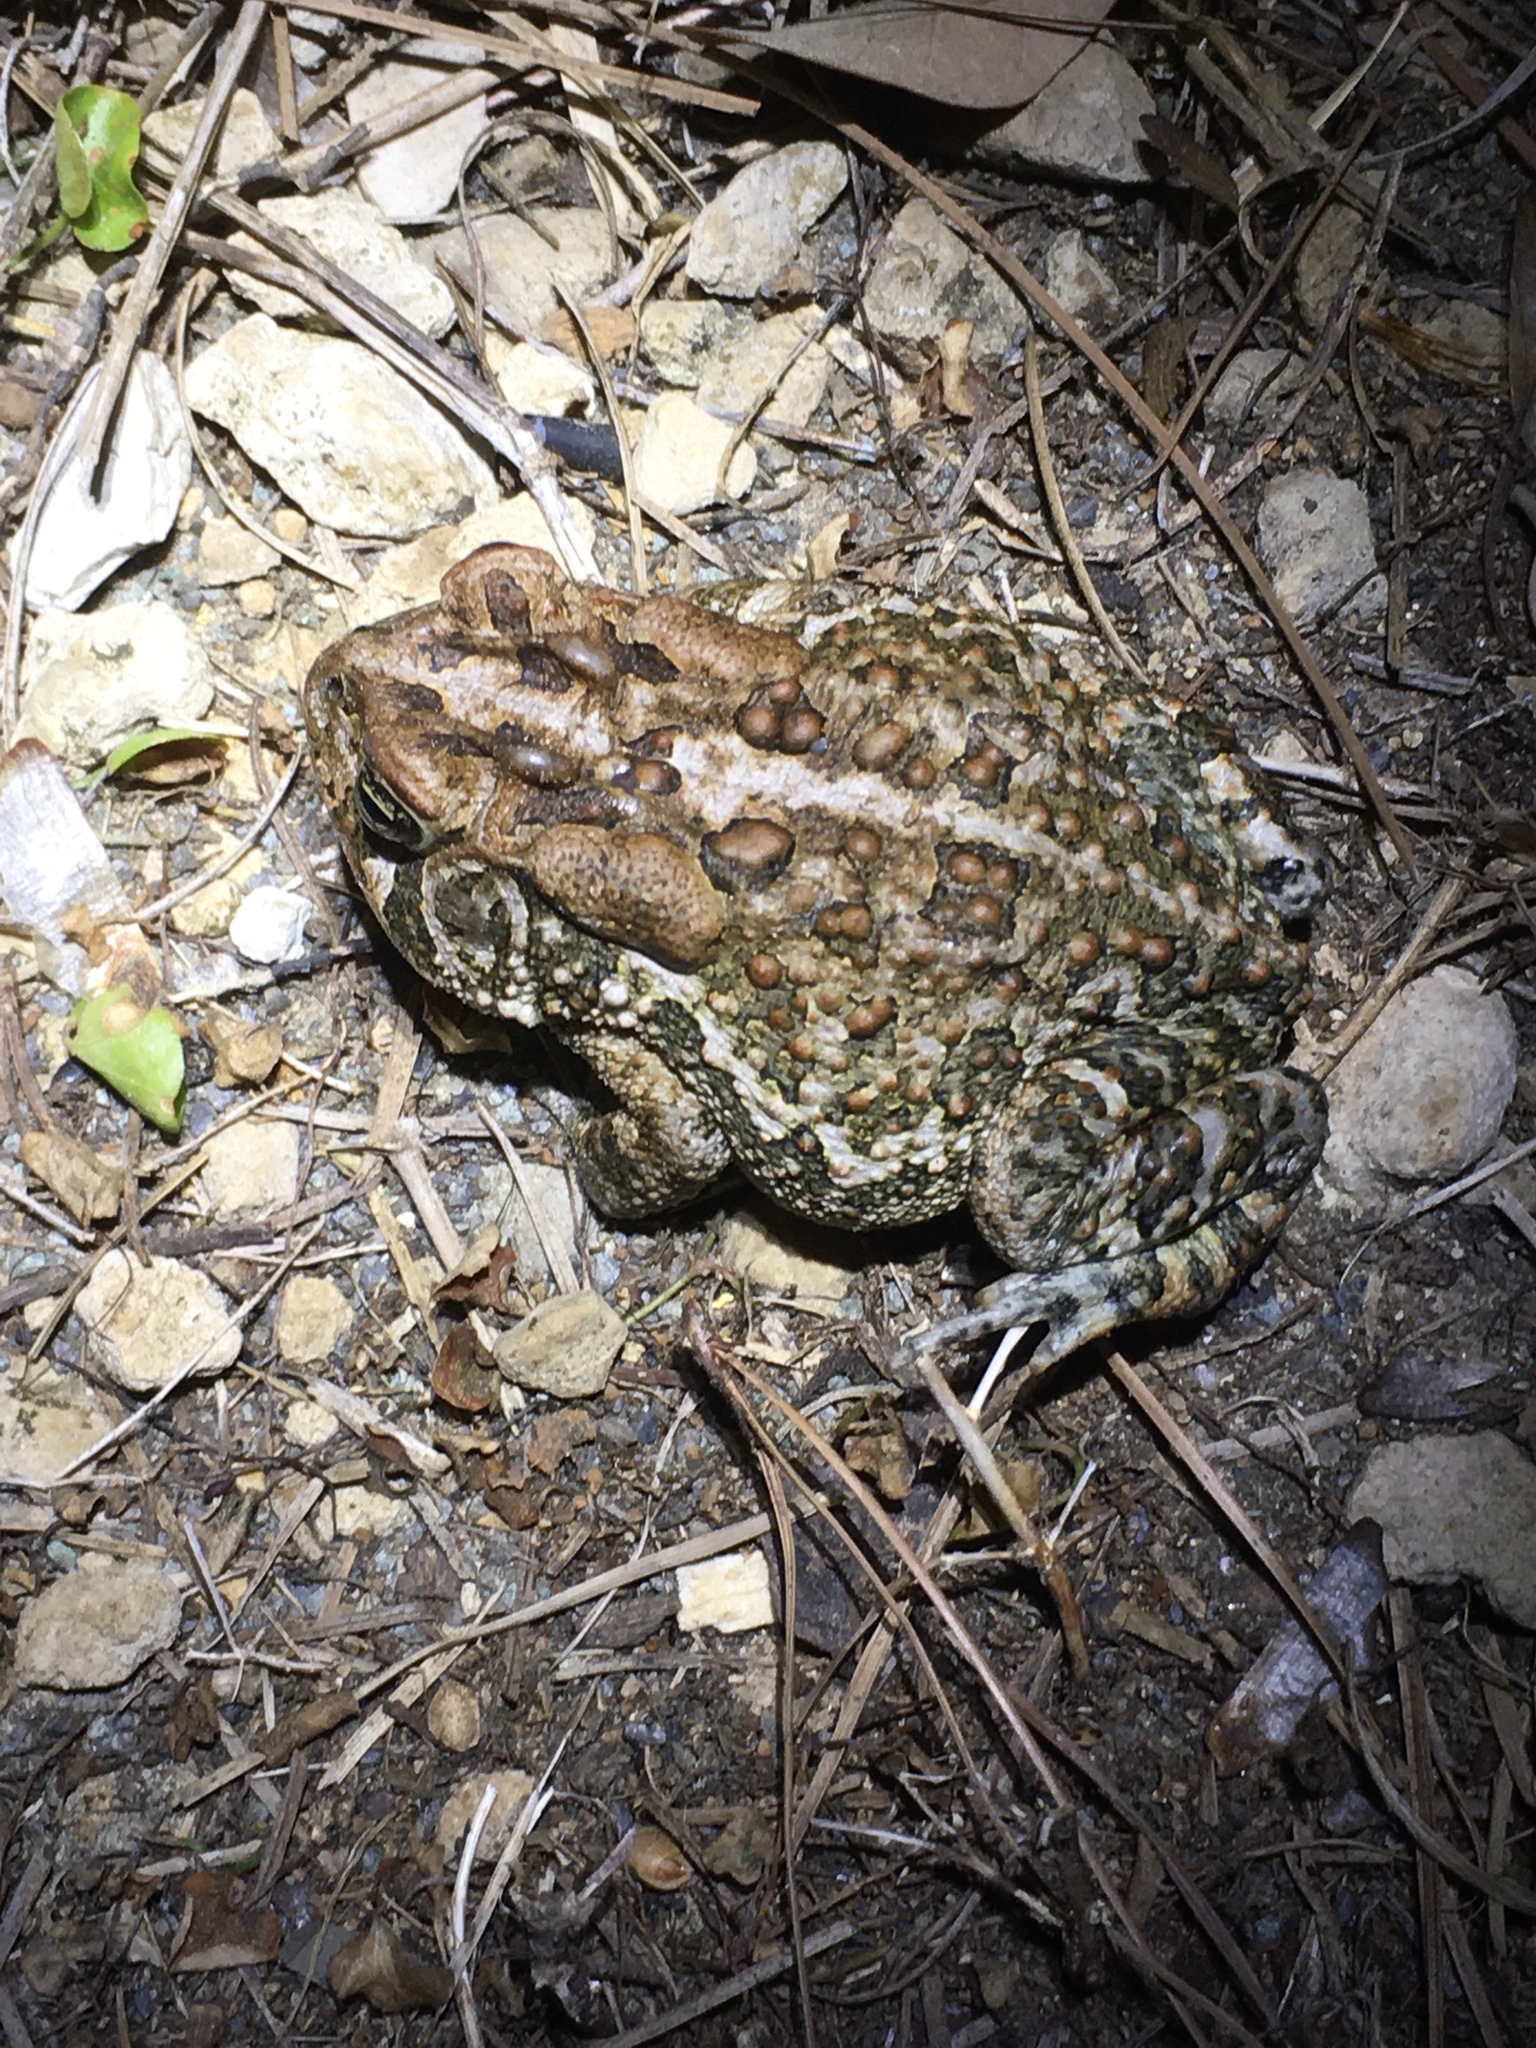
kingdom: Animalia
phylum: Chordata
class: Amphibia
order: Anura
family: Bufonidae
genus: Anaxyrus
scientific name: Anaxyrus terrestris
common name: Southern toad
